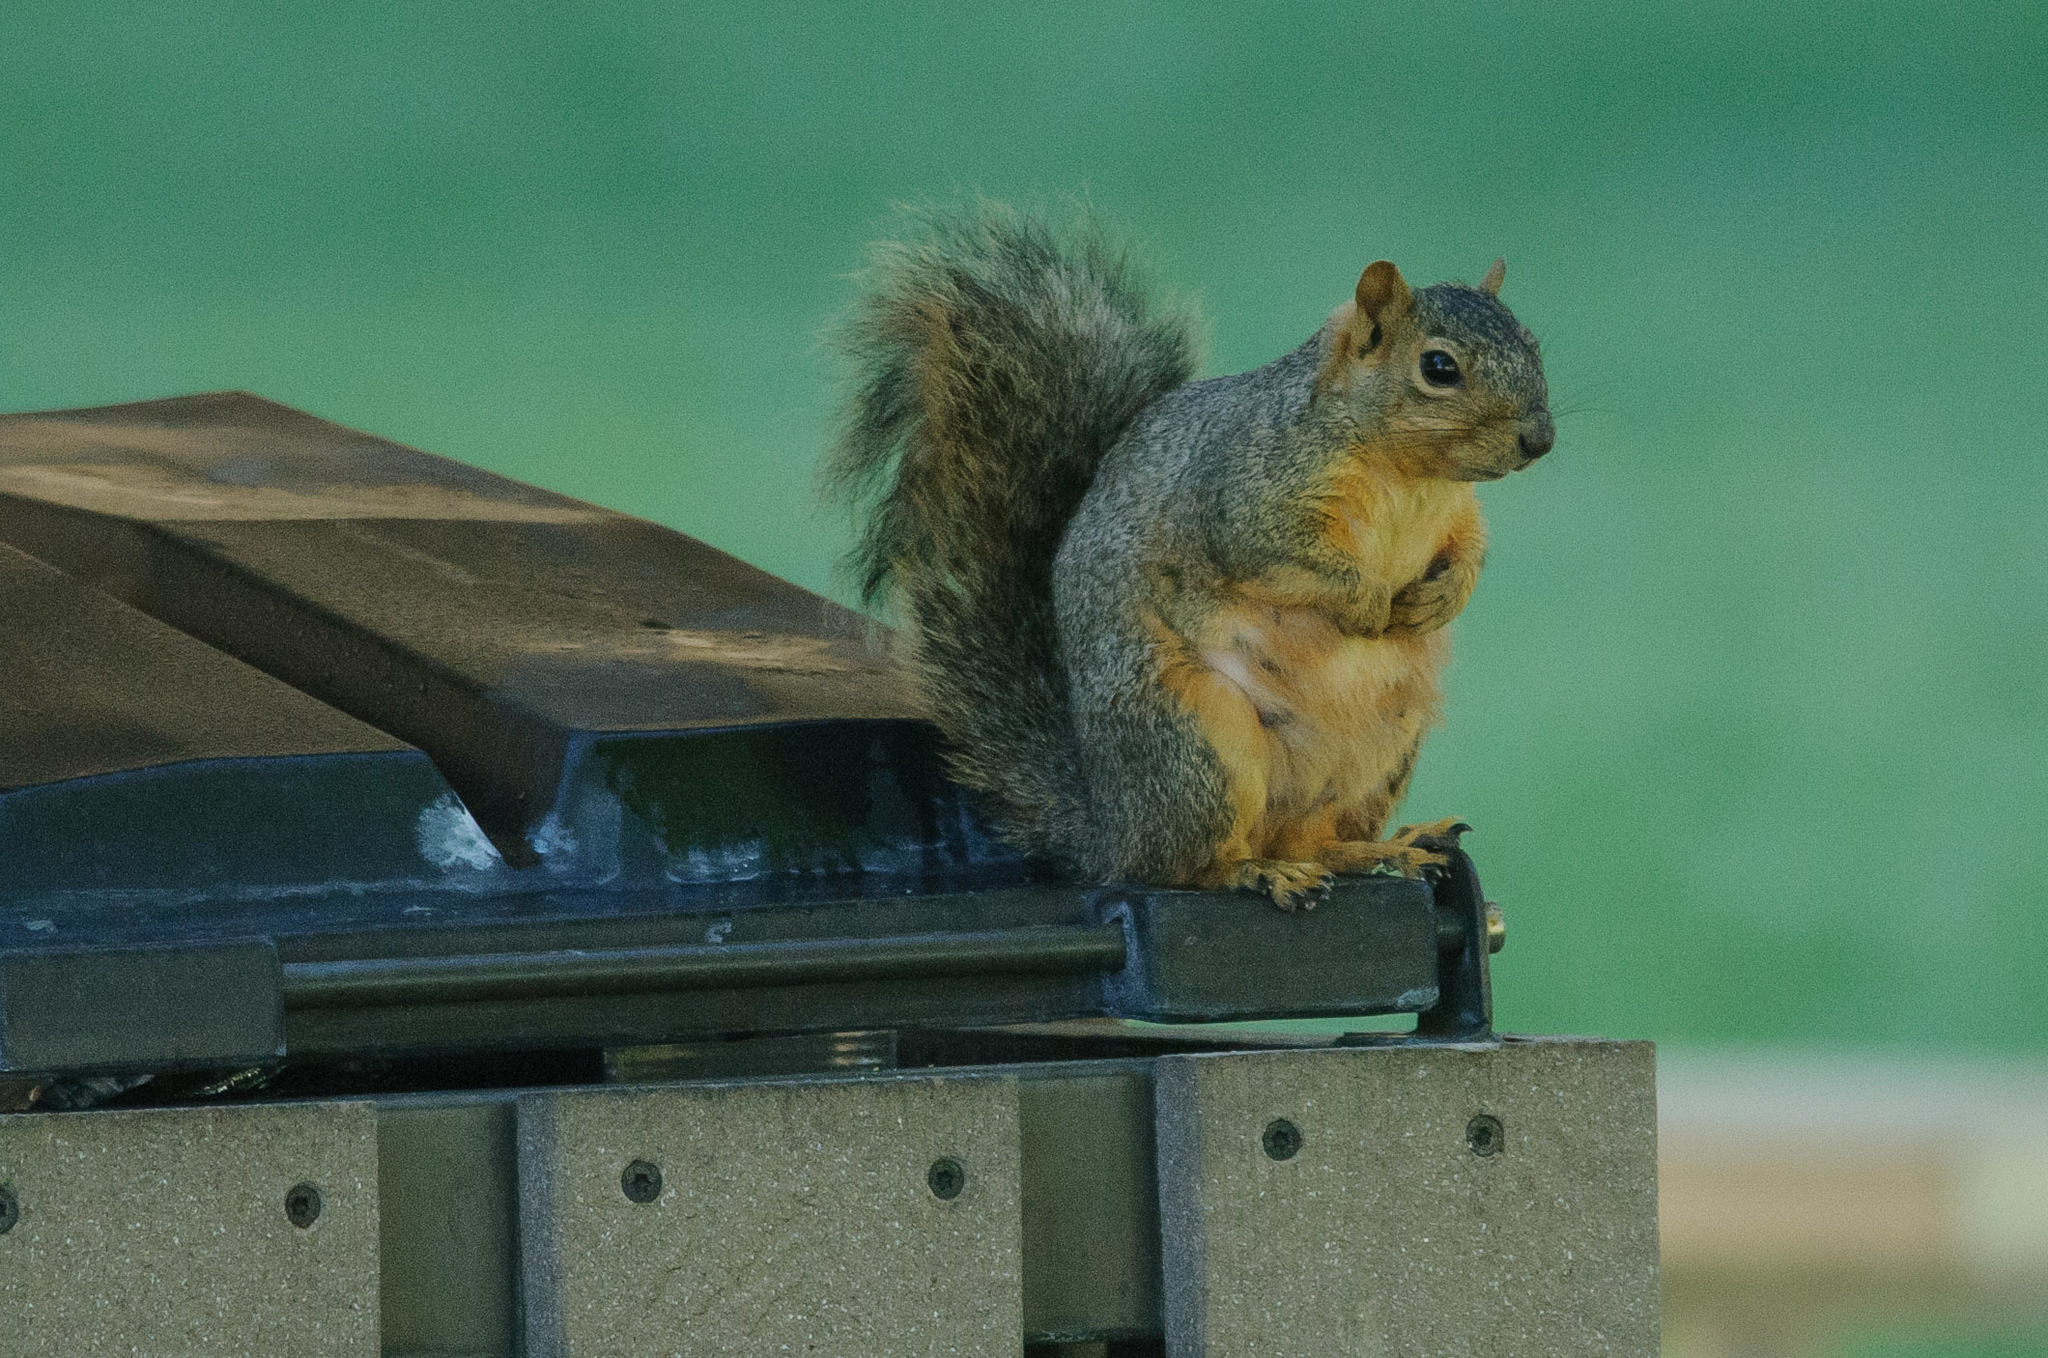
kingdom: Animalia
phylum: Chordata
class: Mammalia
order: Rodentia
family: Sciuridae
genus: Sciurus
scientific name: Sciurus niger
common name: Fox squirrel
